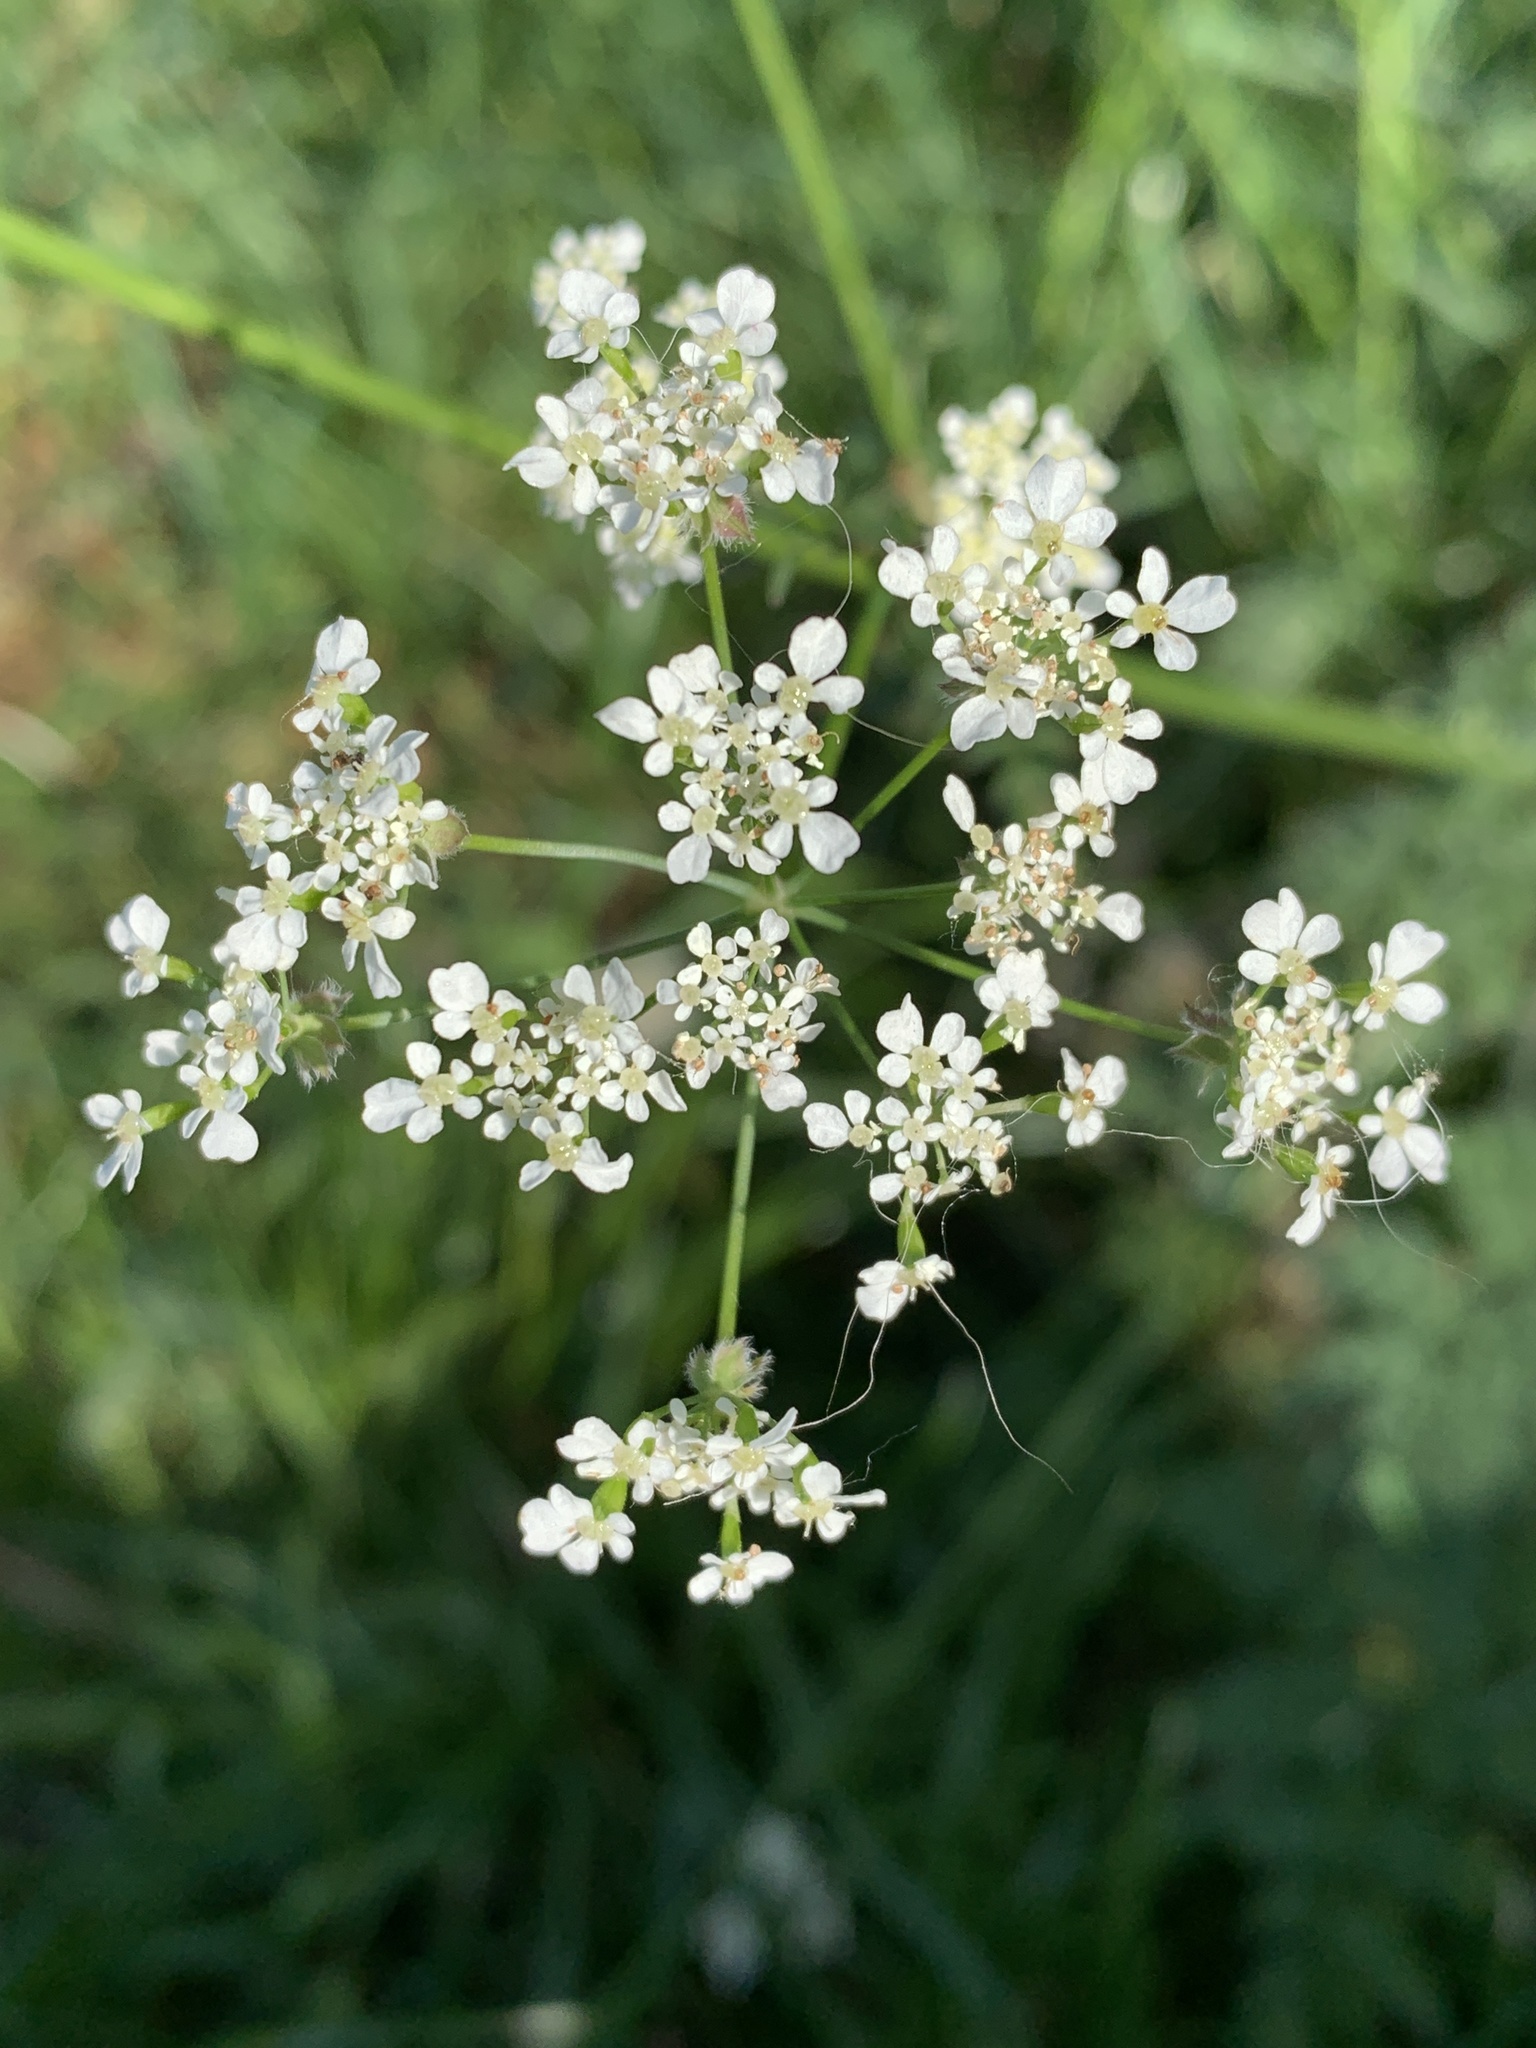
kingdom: Plantae
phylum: Tracheophyta
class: Magnoliopsida
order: Apiales
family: Apiaceae
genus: Anthriscus
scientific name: Anthriscus sylvestris
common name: Cow parsley
